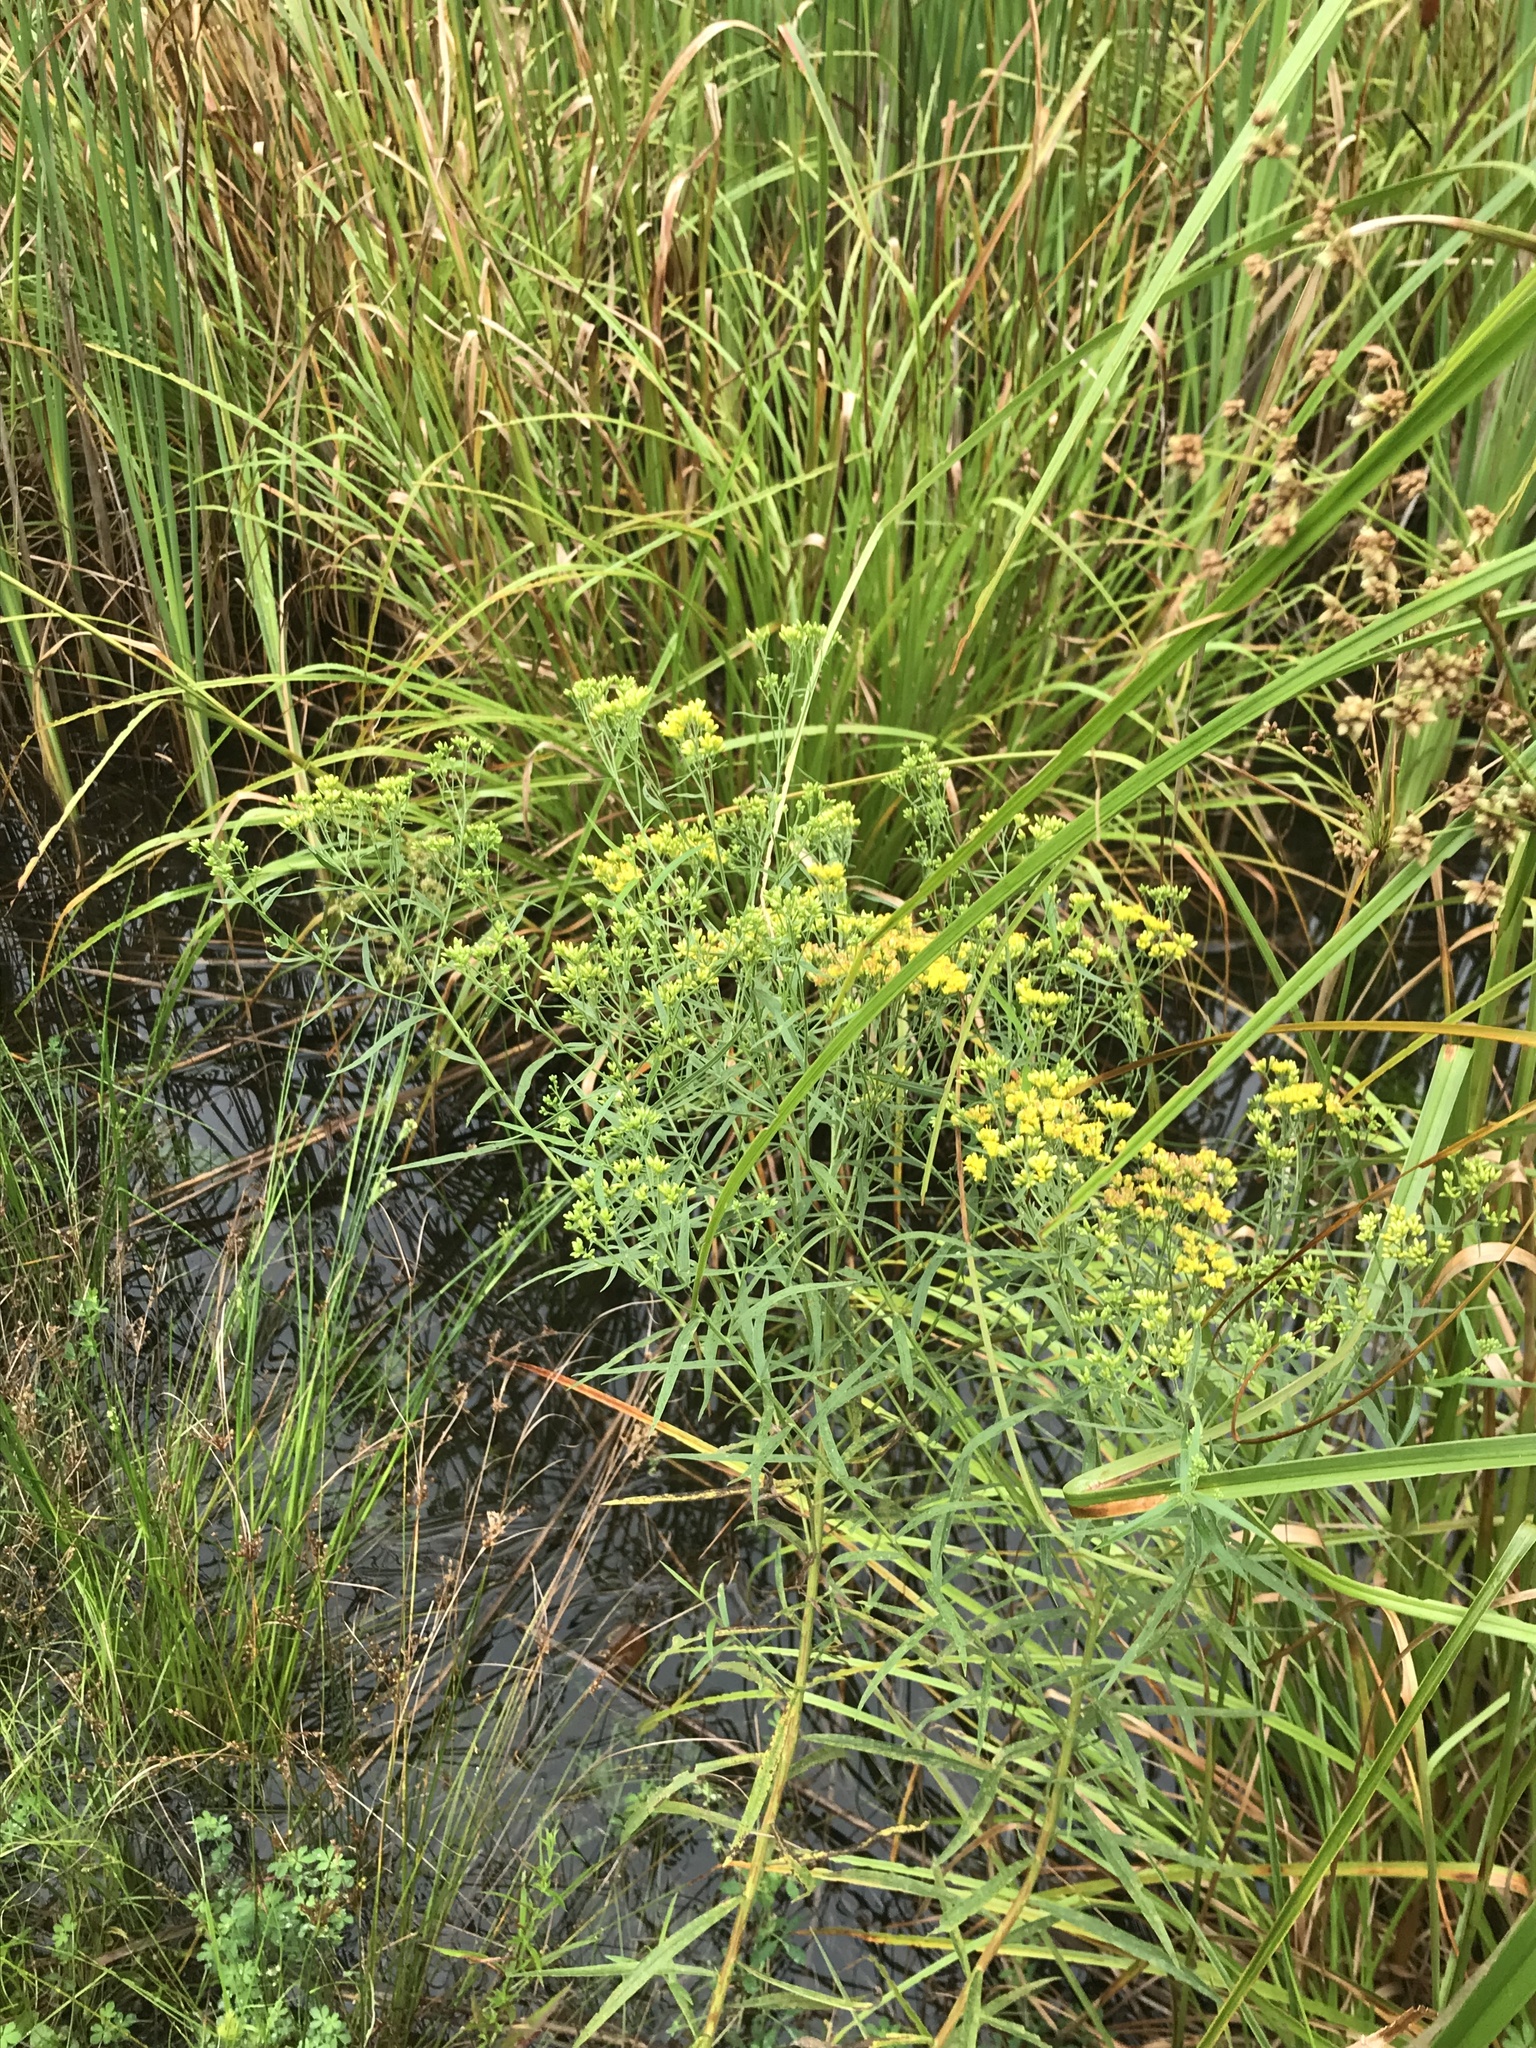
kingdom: Plantae
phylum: Tracheophyta
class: Magnoliopsida
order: Asterales
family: Asteraceae
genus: Euthamia
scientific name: Euthamia graminifolia
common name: Common goldentop
